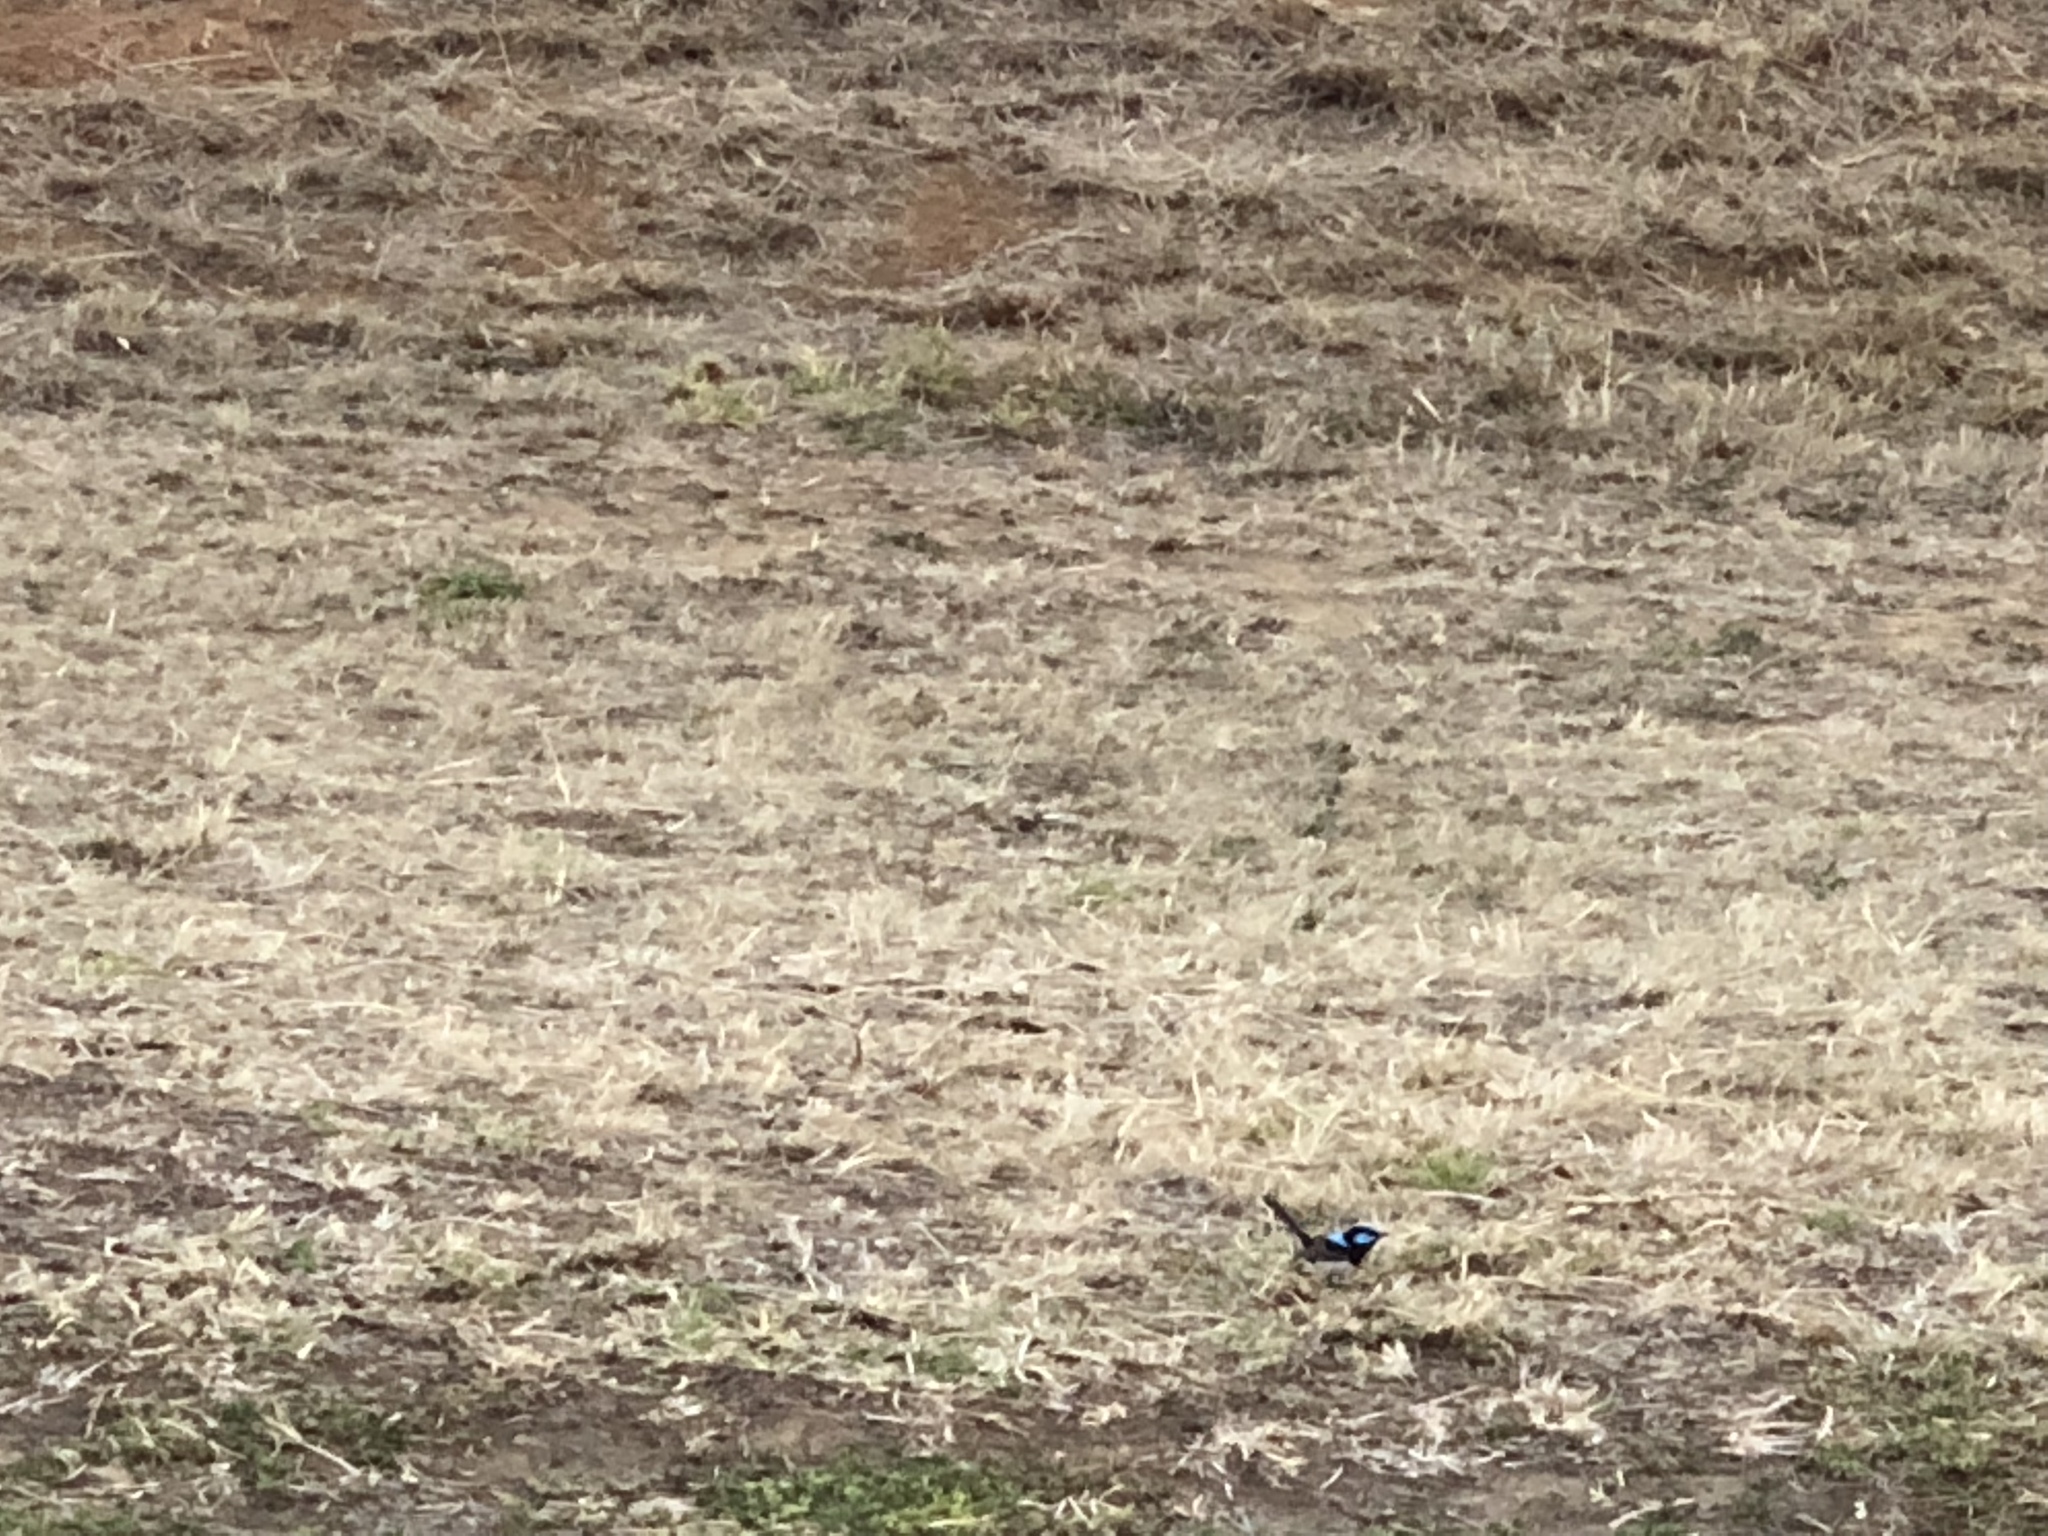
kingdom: Animalia
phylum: Chordata
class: Aves
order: Passeriformes
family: Maluridae
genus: Malurus
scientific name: Malurus cyaneus
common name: Superb fairywren
